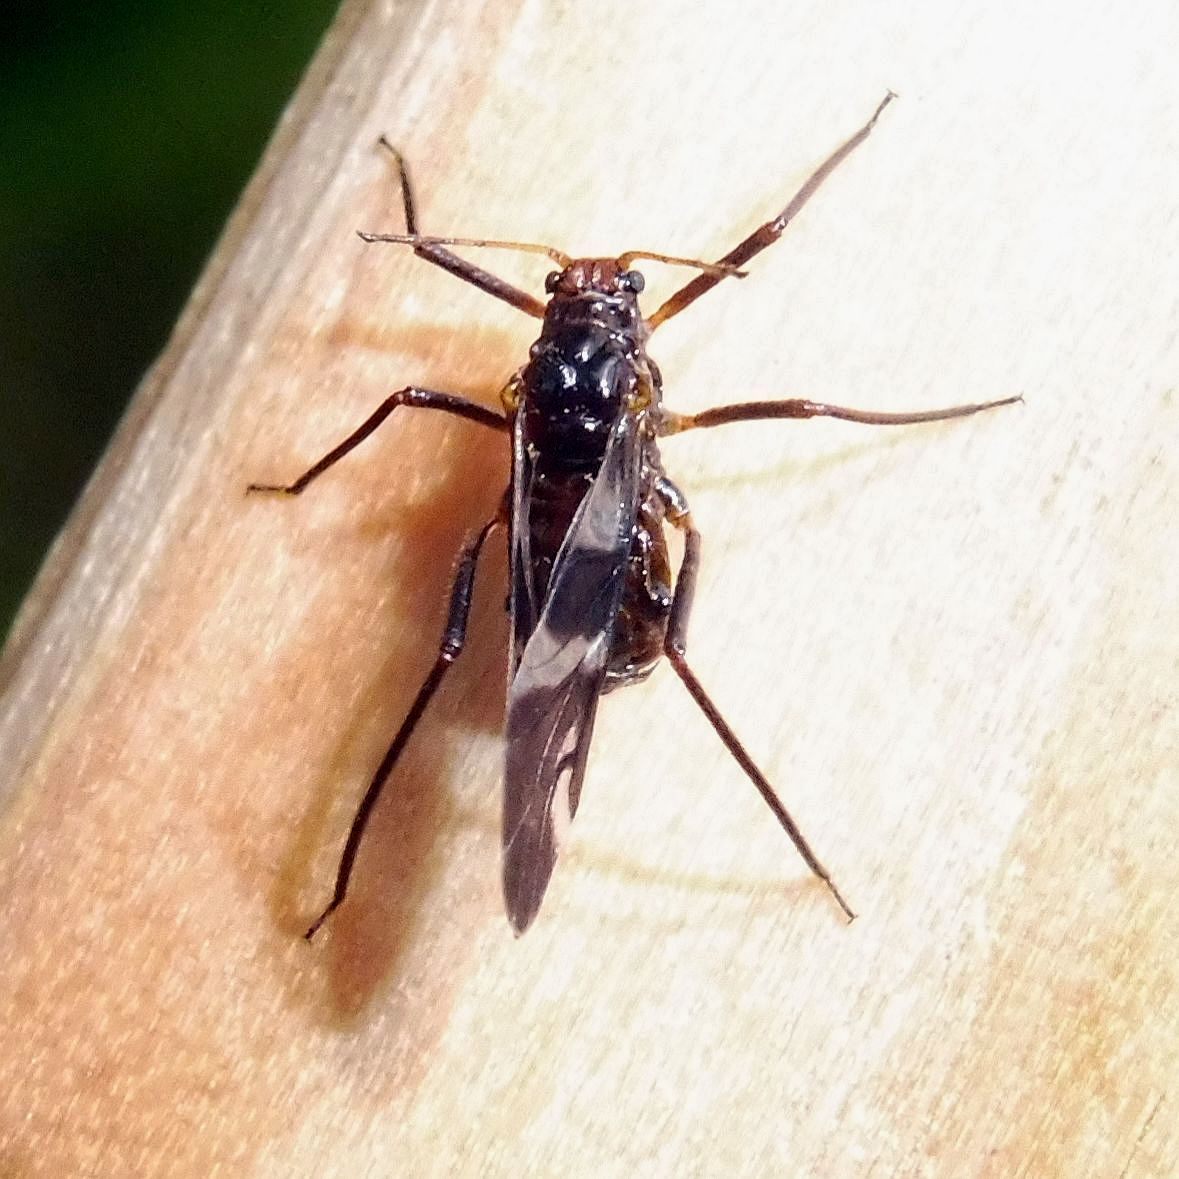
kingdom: Animalia
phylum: Arthropoda
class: Insecta
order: Hemiptera
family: Aphididae
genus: Lachnus
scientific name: Lachnus roboris
